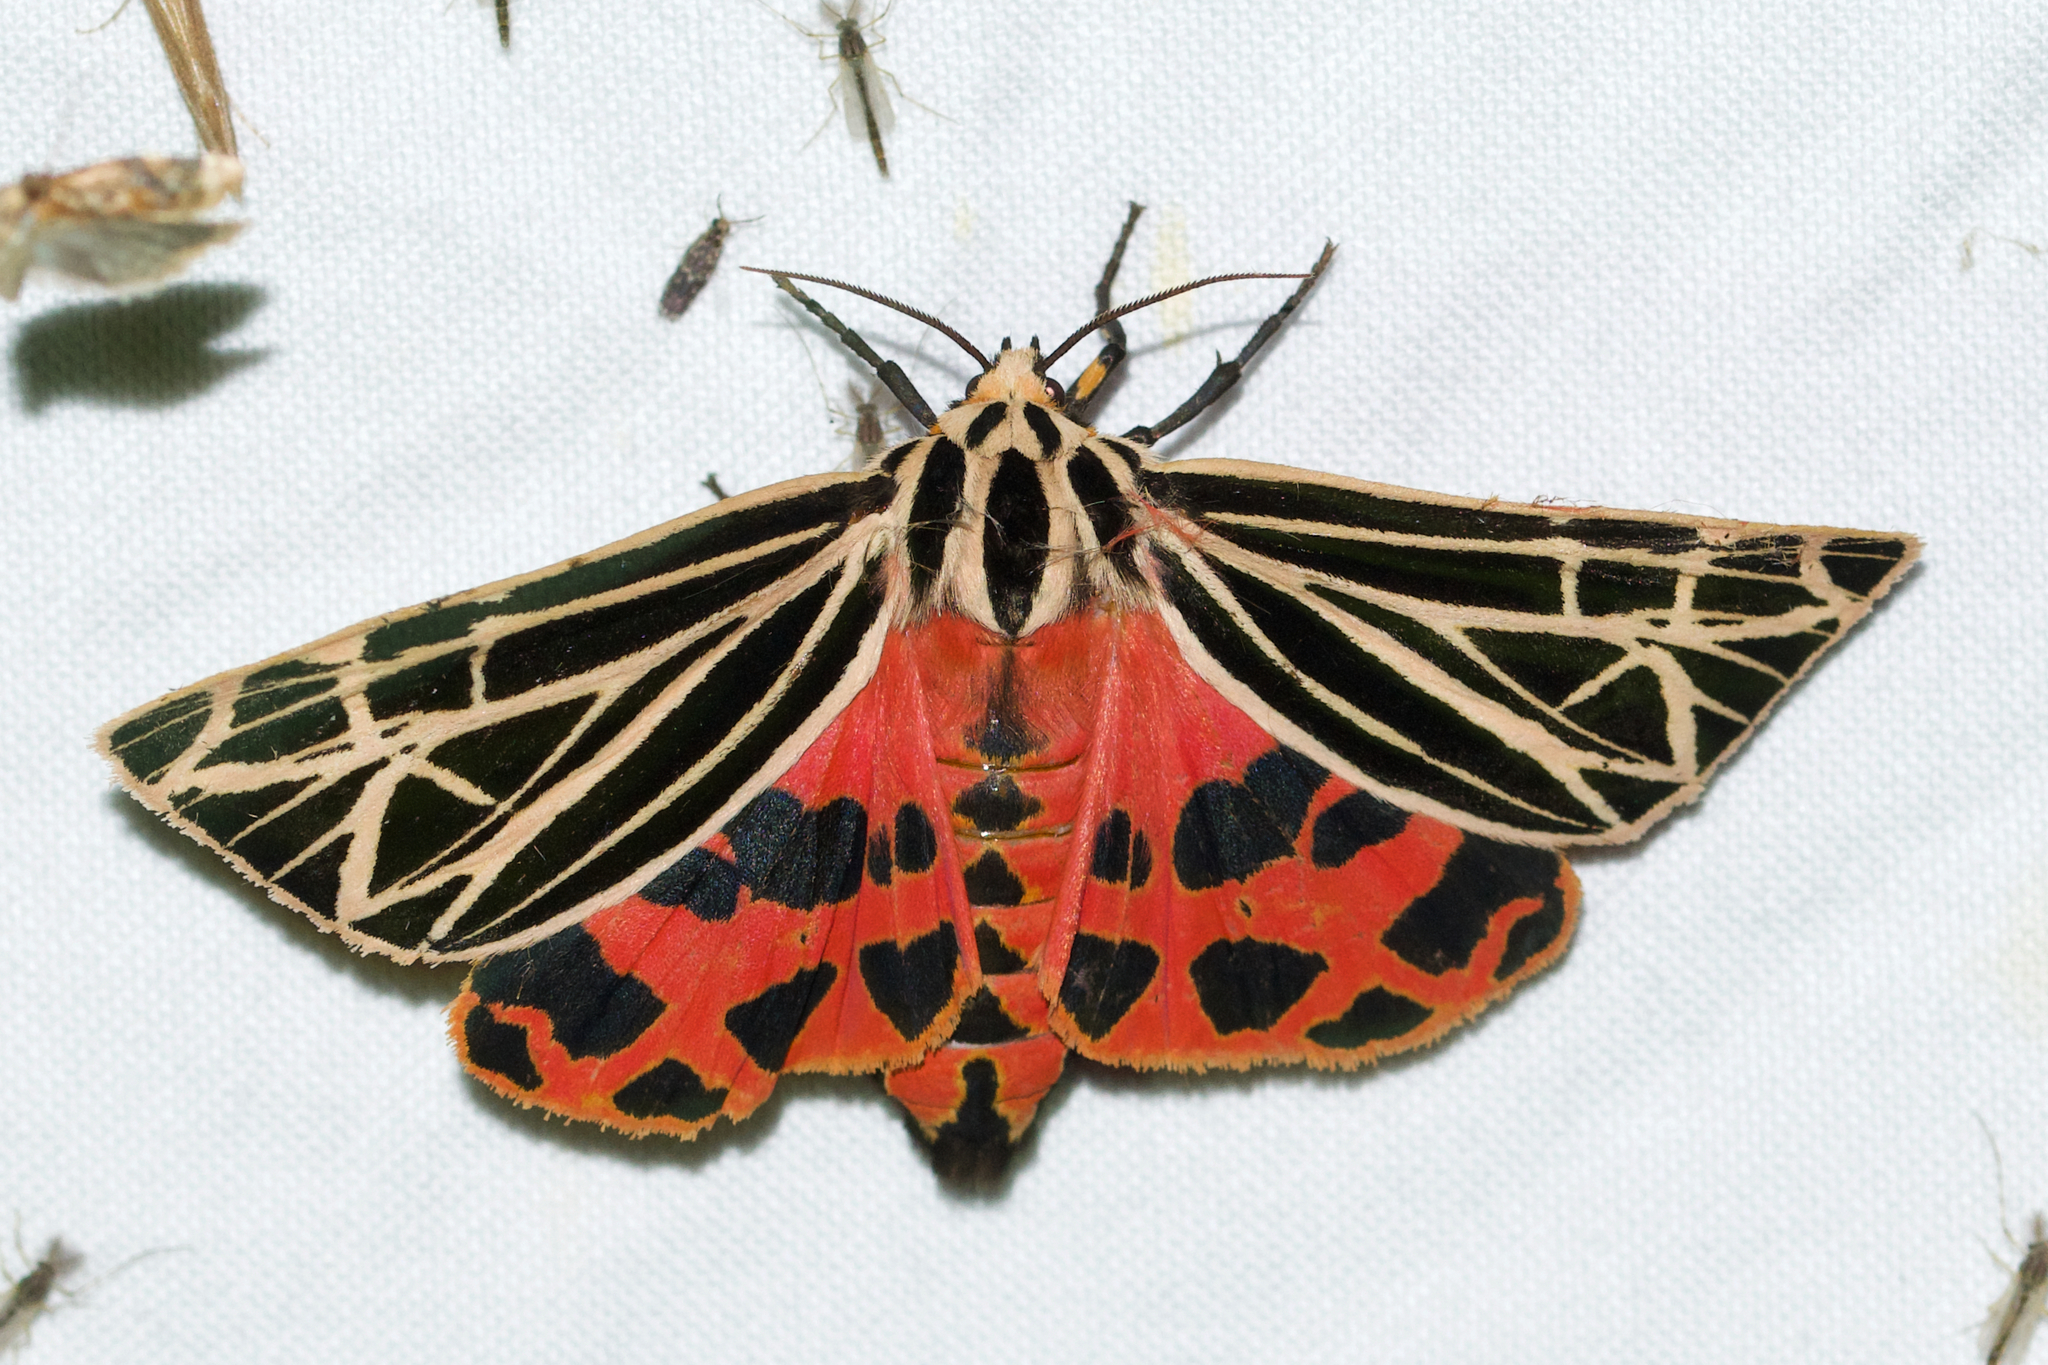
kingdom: Animalia
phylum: Arthropoda
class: Insecta
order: Lepidoptera
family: Erebidae
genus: Grammia
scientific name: Grammia virgo
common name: Virgin tiger moth
